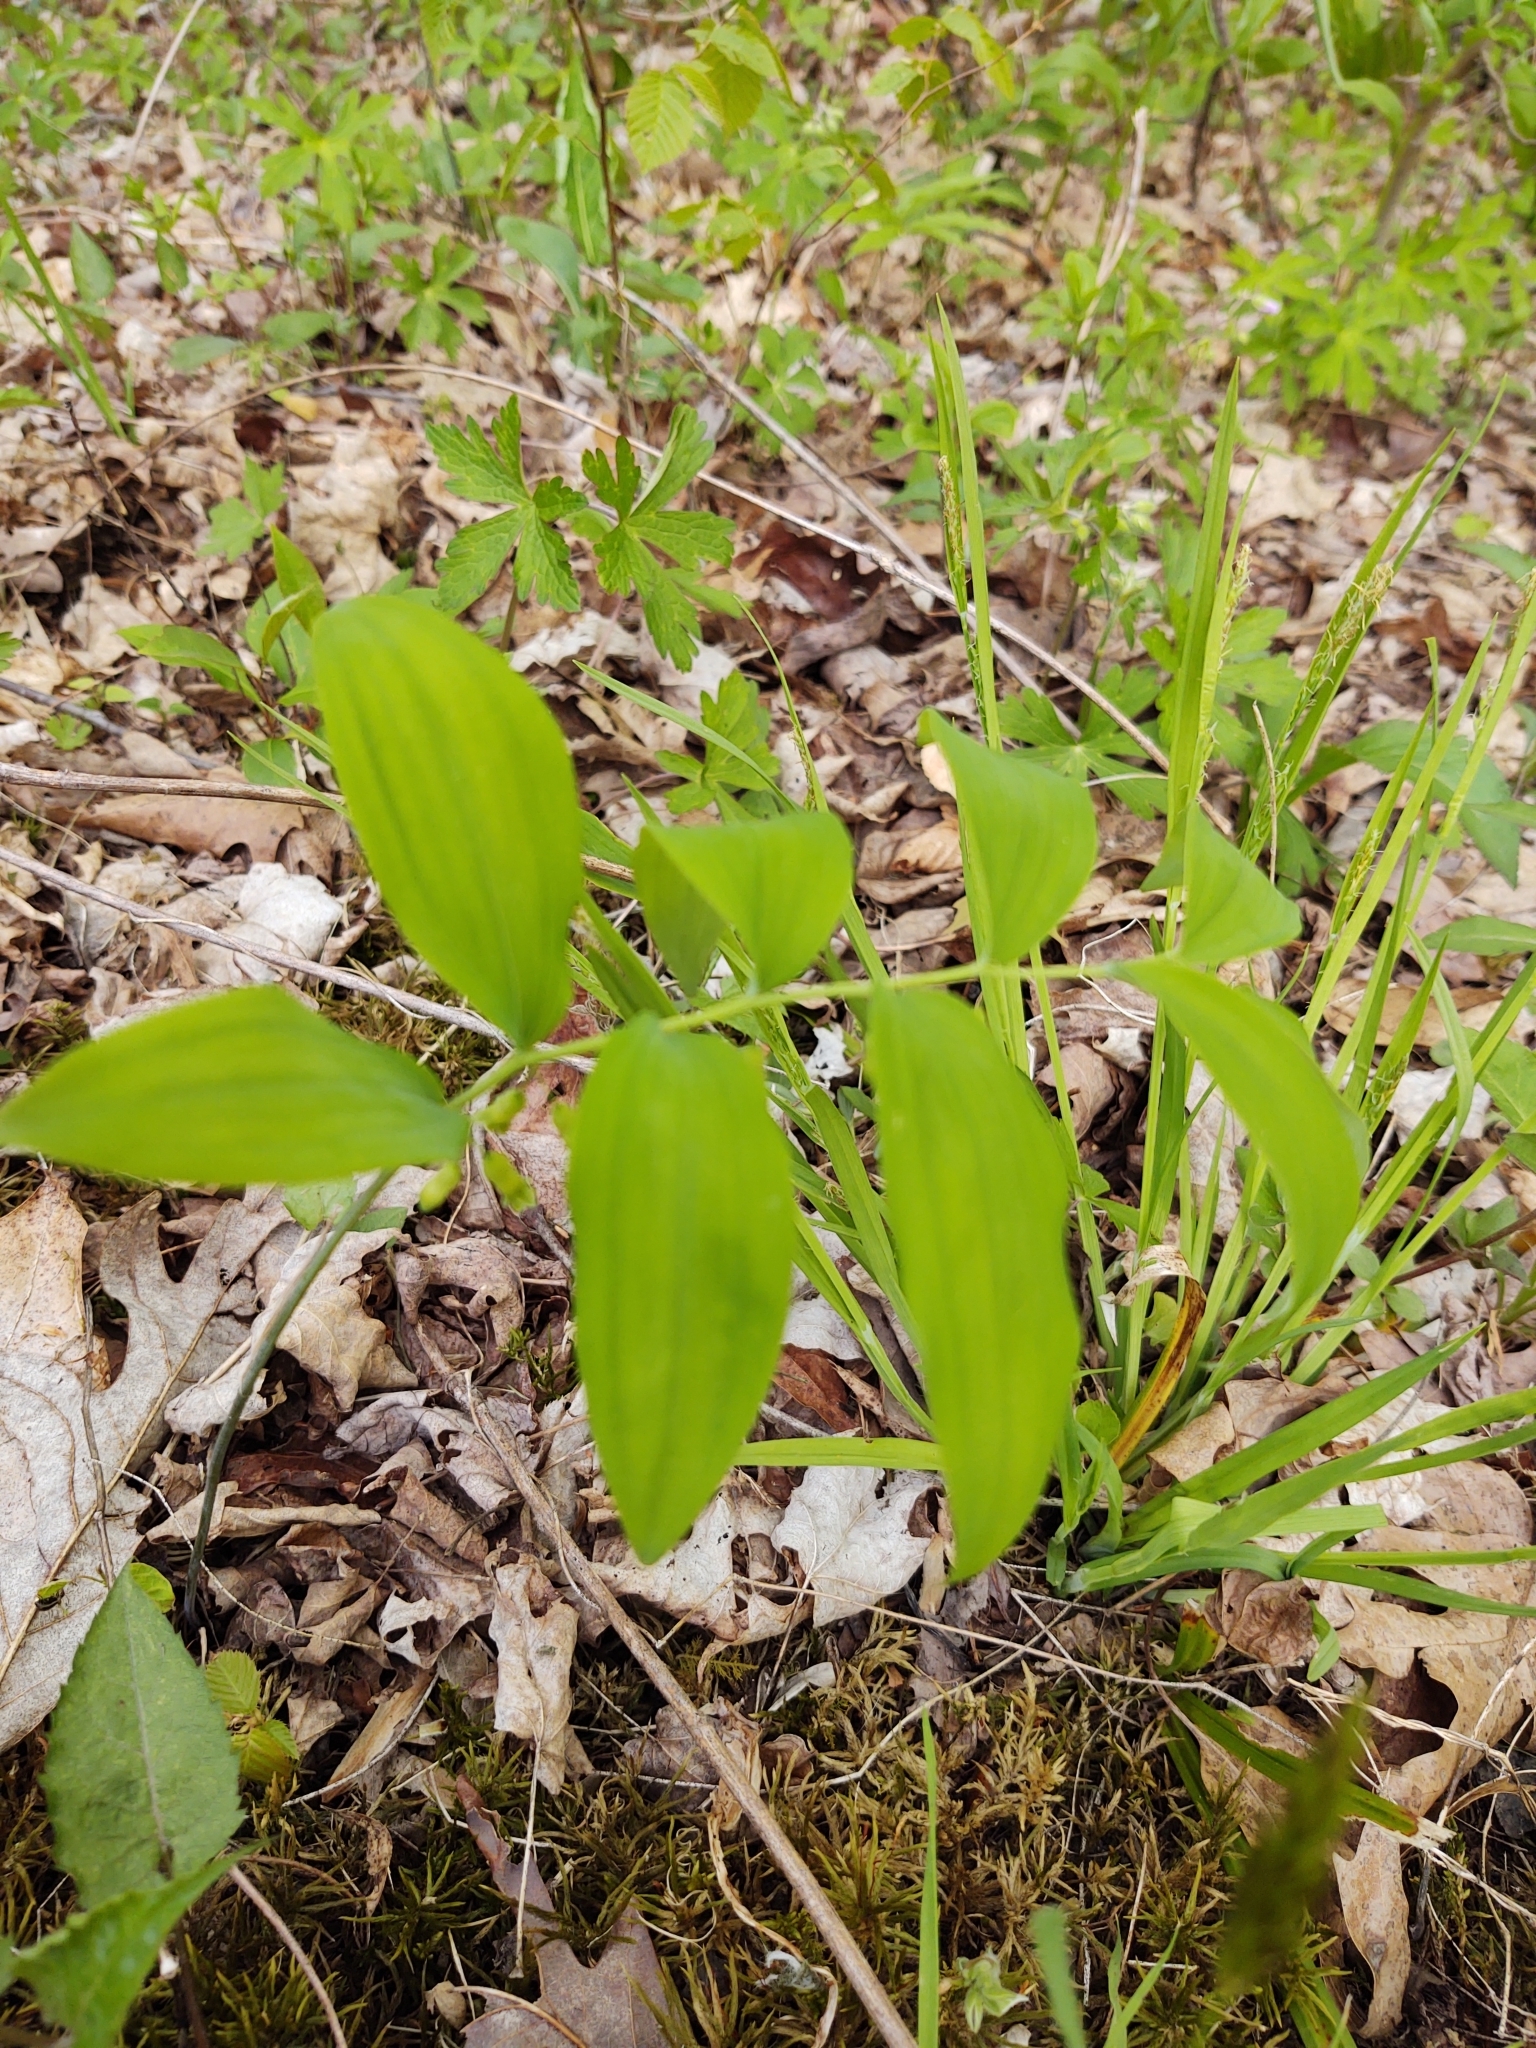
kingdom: Plantae
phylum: Tracheophyta
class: Liliopsida
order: Asparagales
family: Asparagaceae
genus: Polygonatum
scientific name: Polygonatum pubescens
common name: Downy solomon's seal
